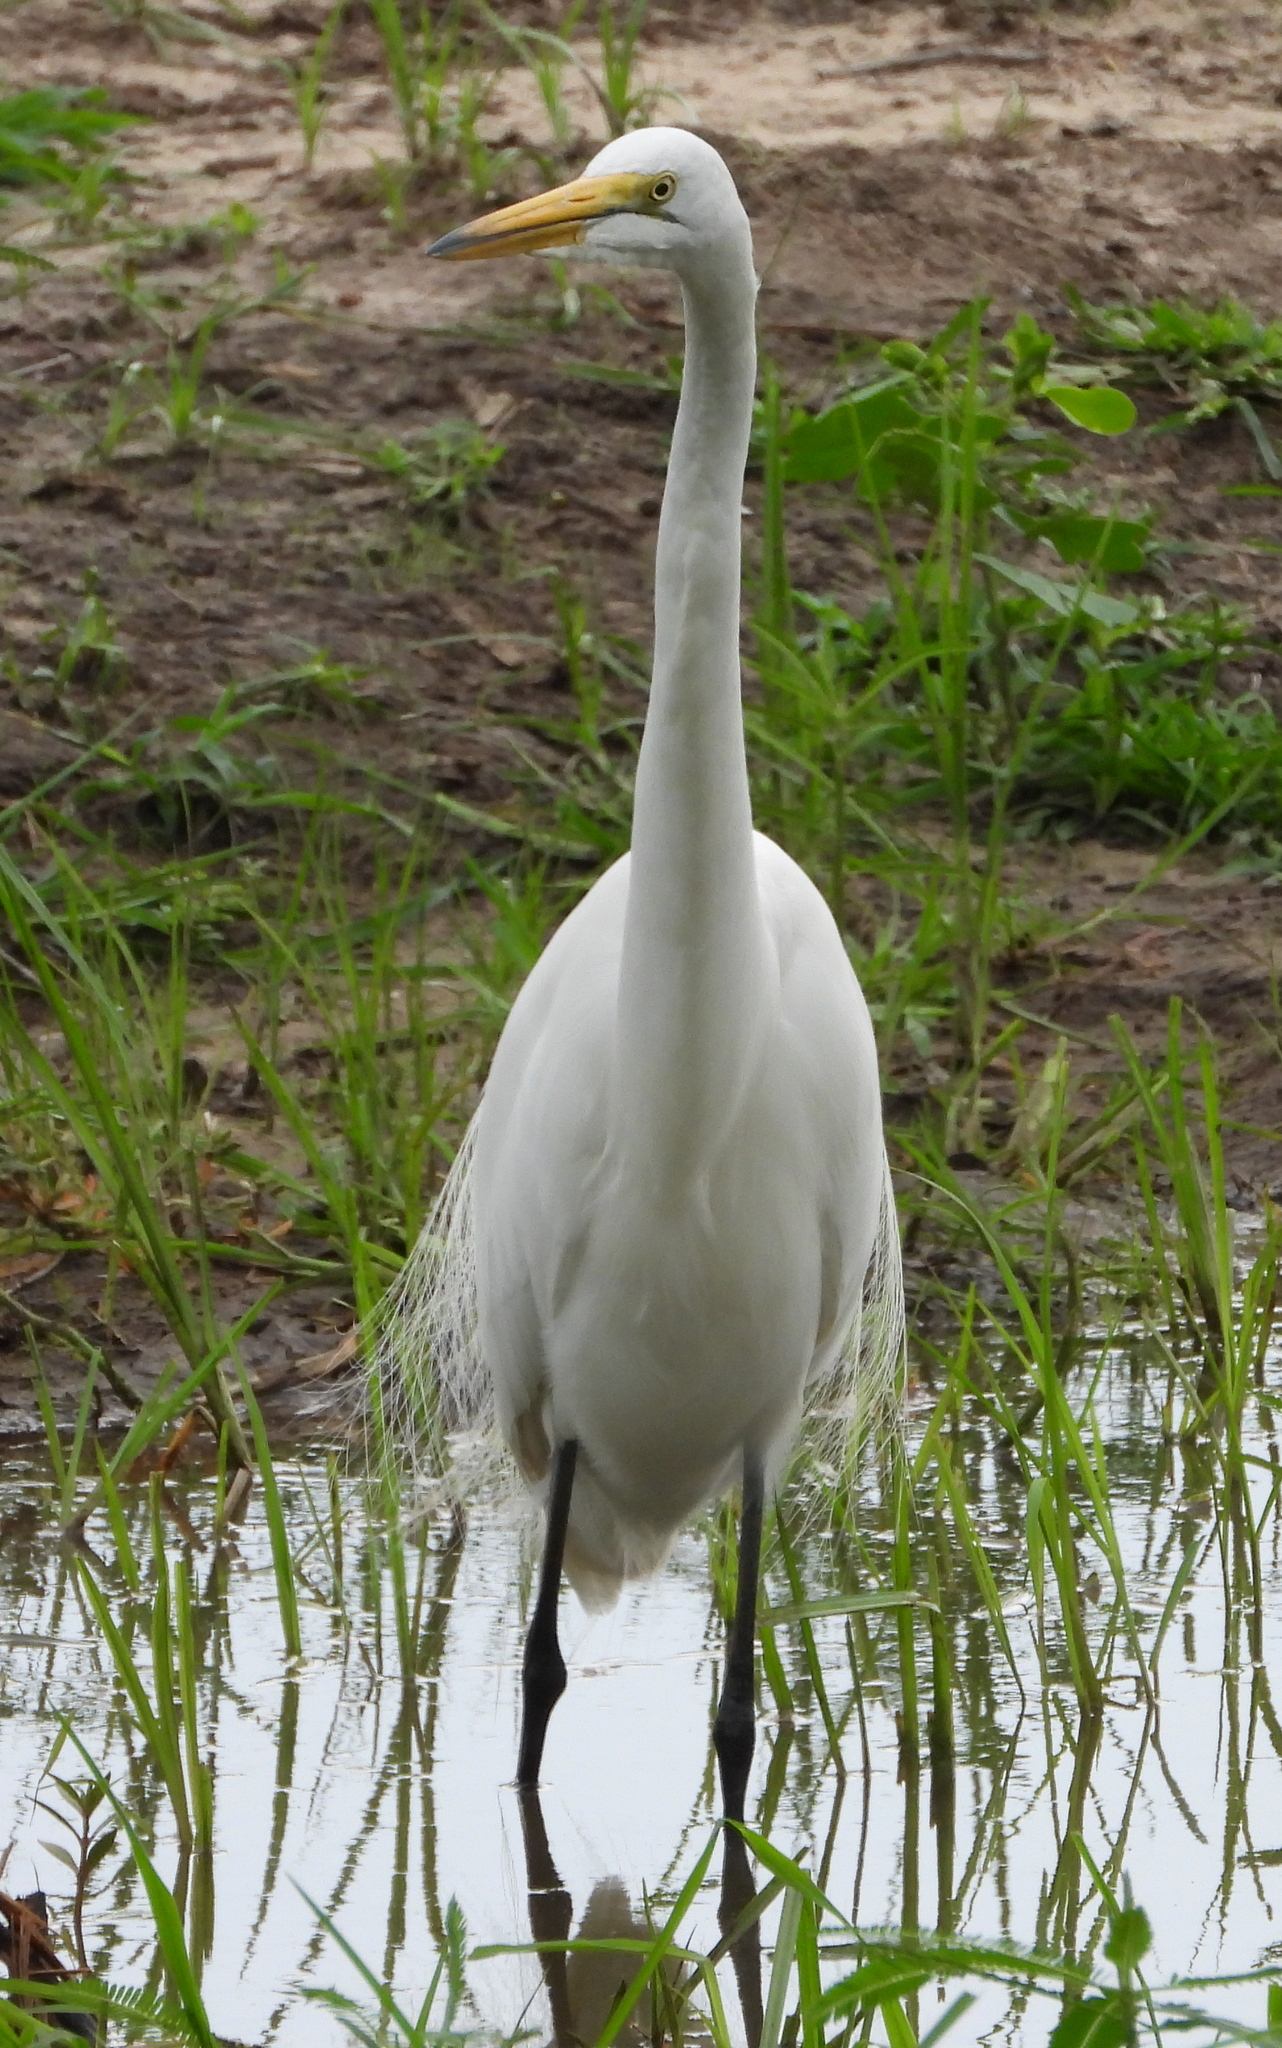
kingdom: Animalia
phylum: Chordata
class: Aves
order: Pelecaniformes
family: Ardeidae
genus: Ardea
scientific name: Ardea alba
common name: Great egret
